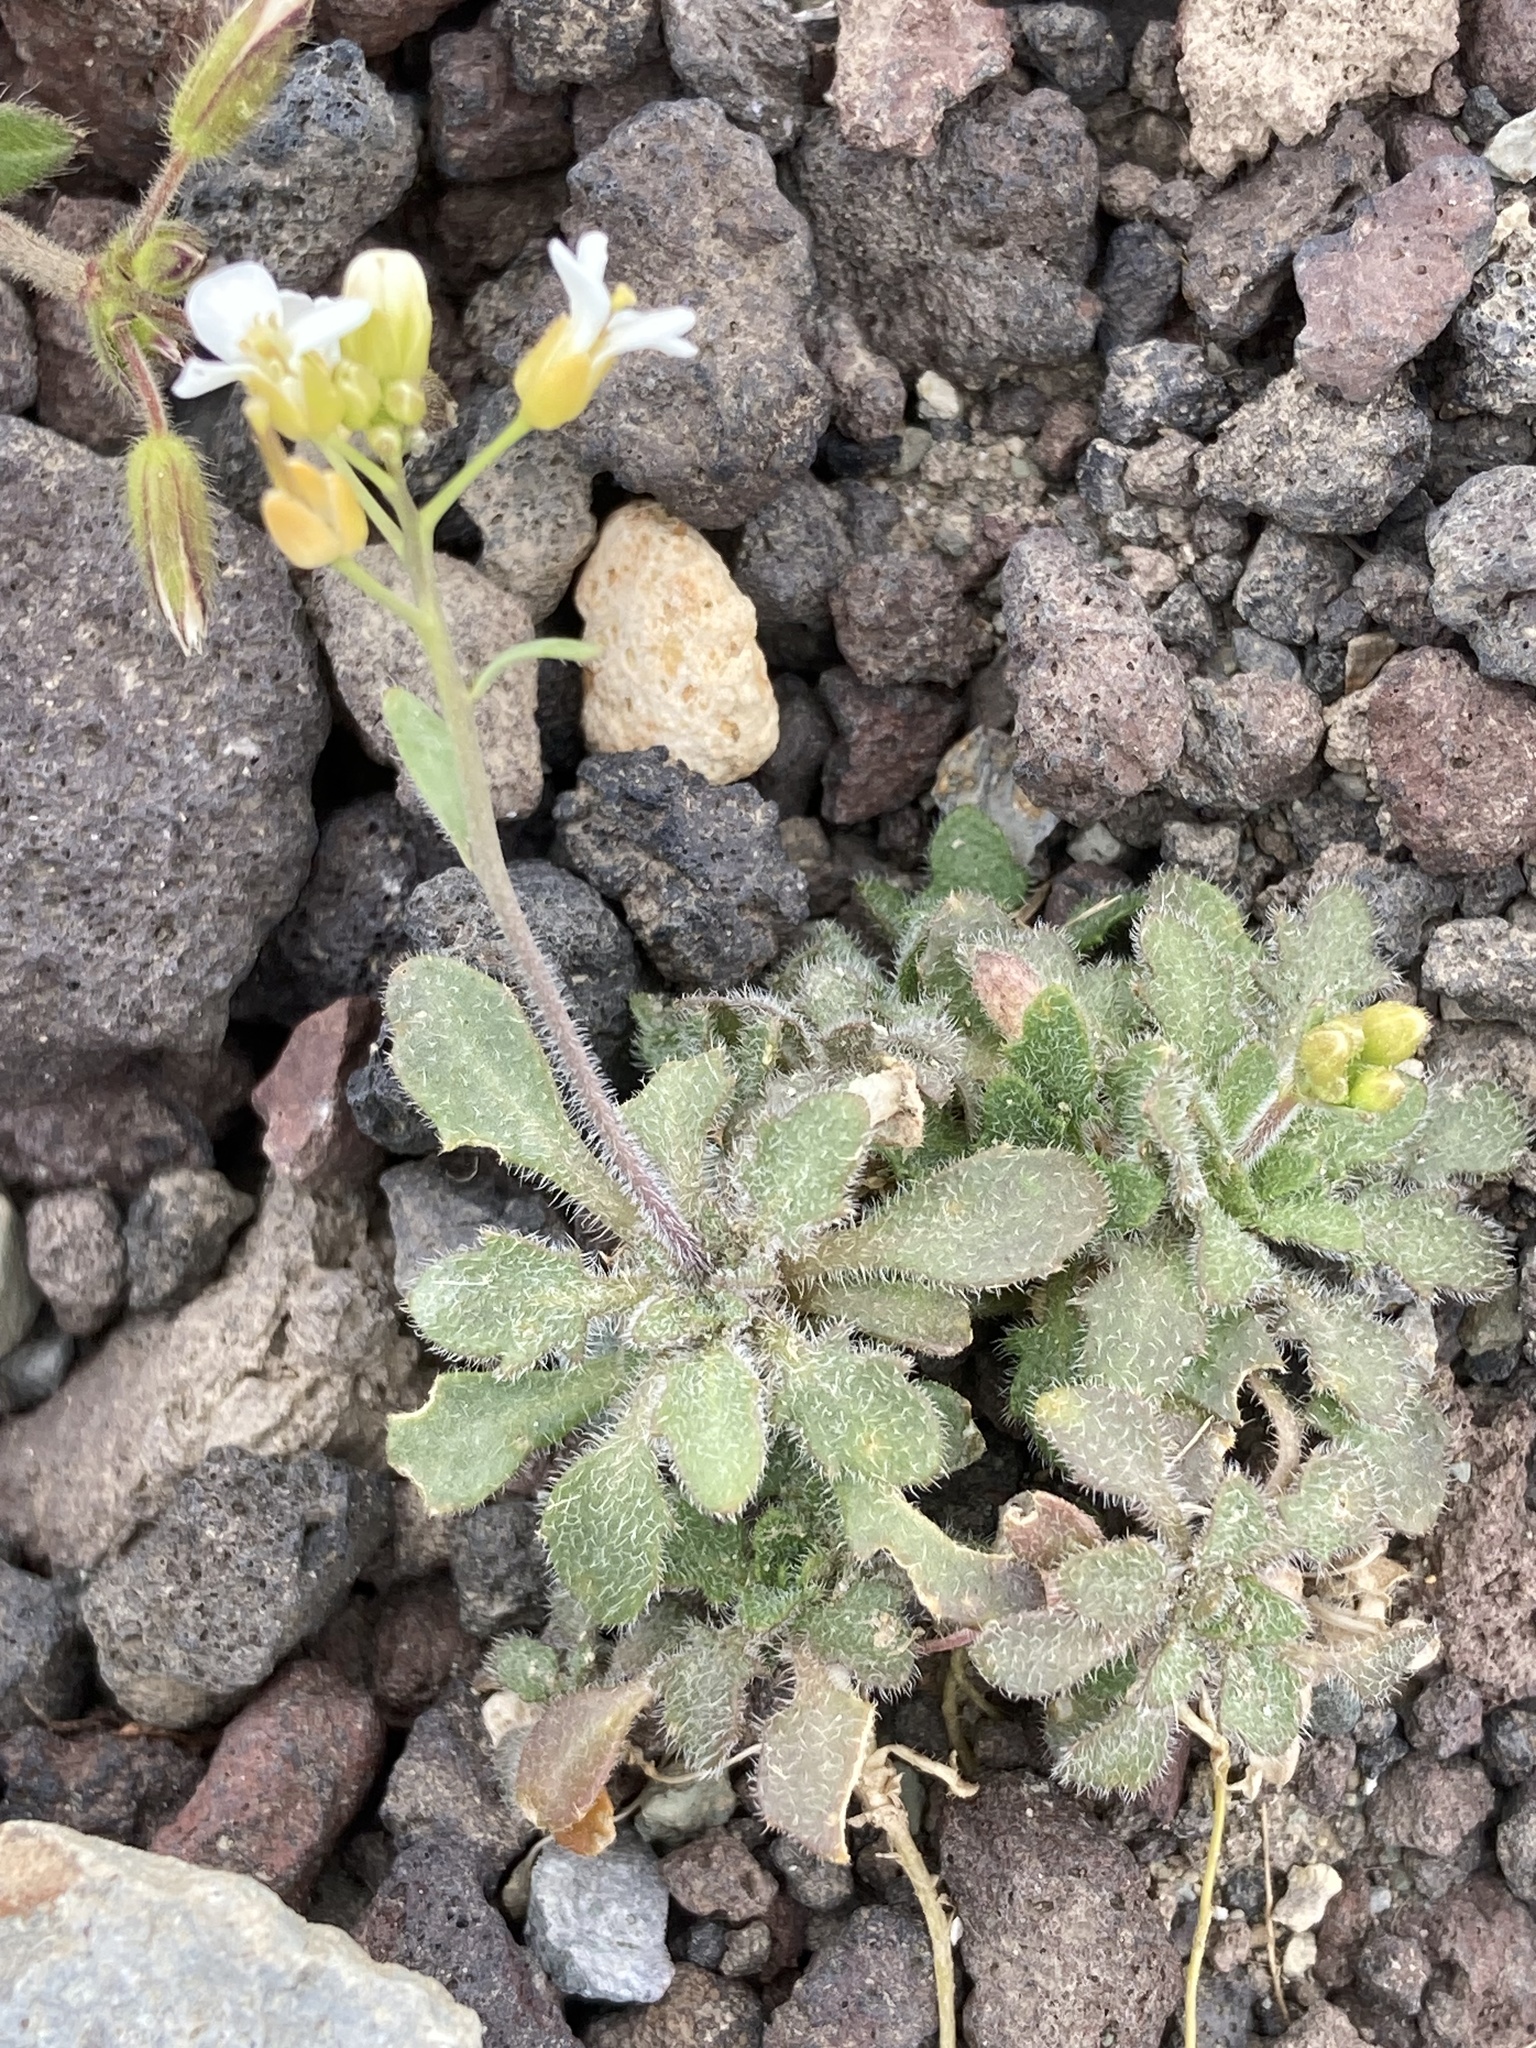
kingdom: Plantae
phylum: Tracheophyta
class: Magnoliopsida
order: Brassicales
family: Brassicaceae
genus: Arabidopsis
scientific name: Arabidopsis lyrata
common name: Lyrate rockcress
